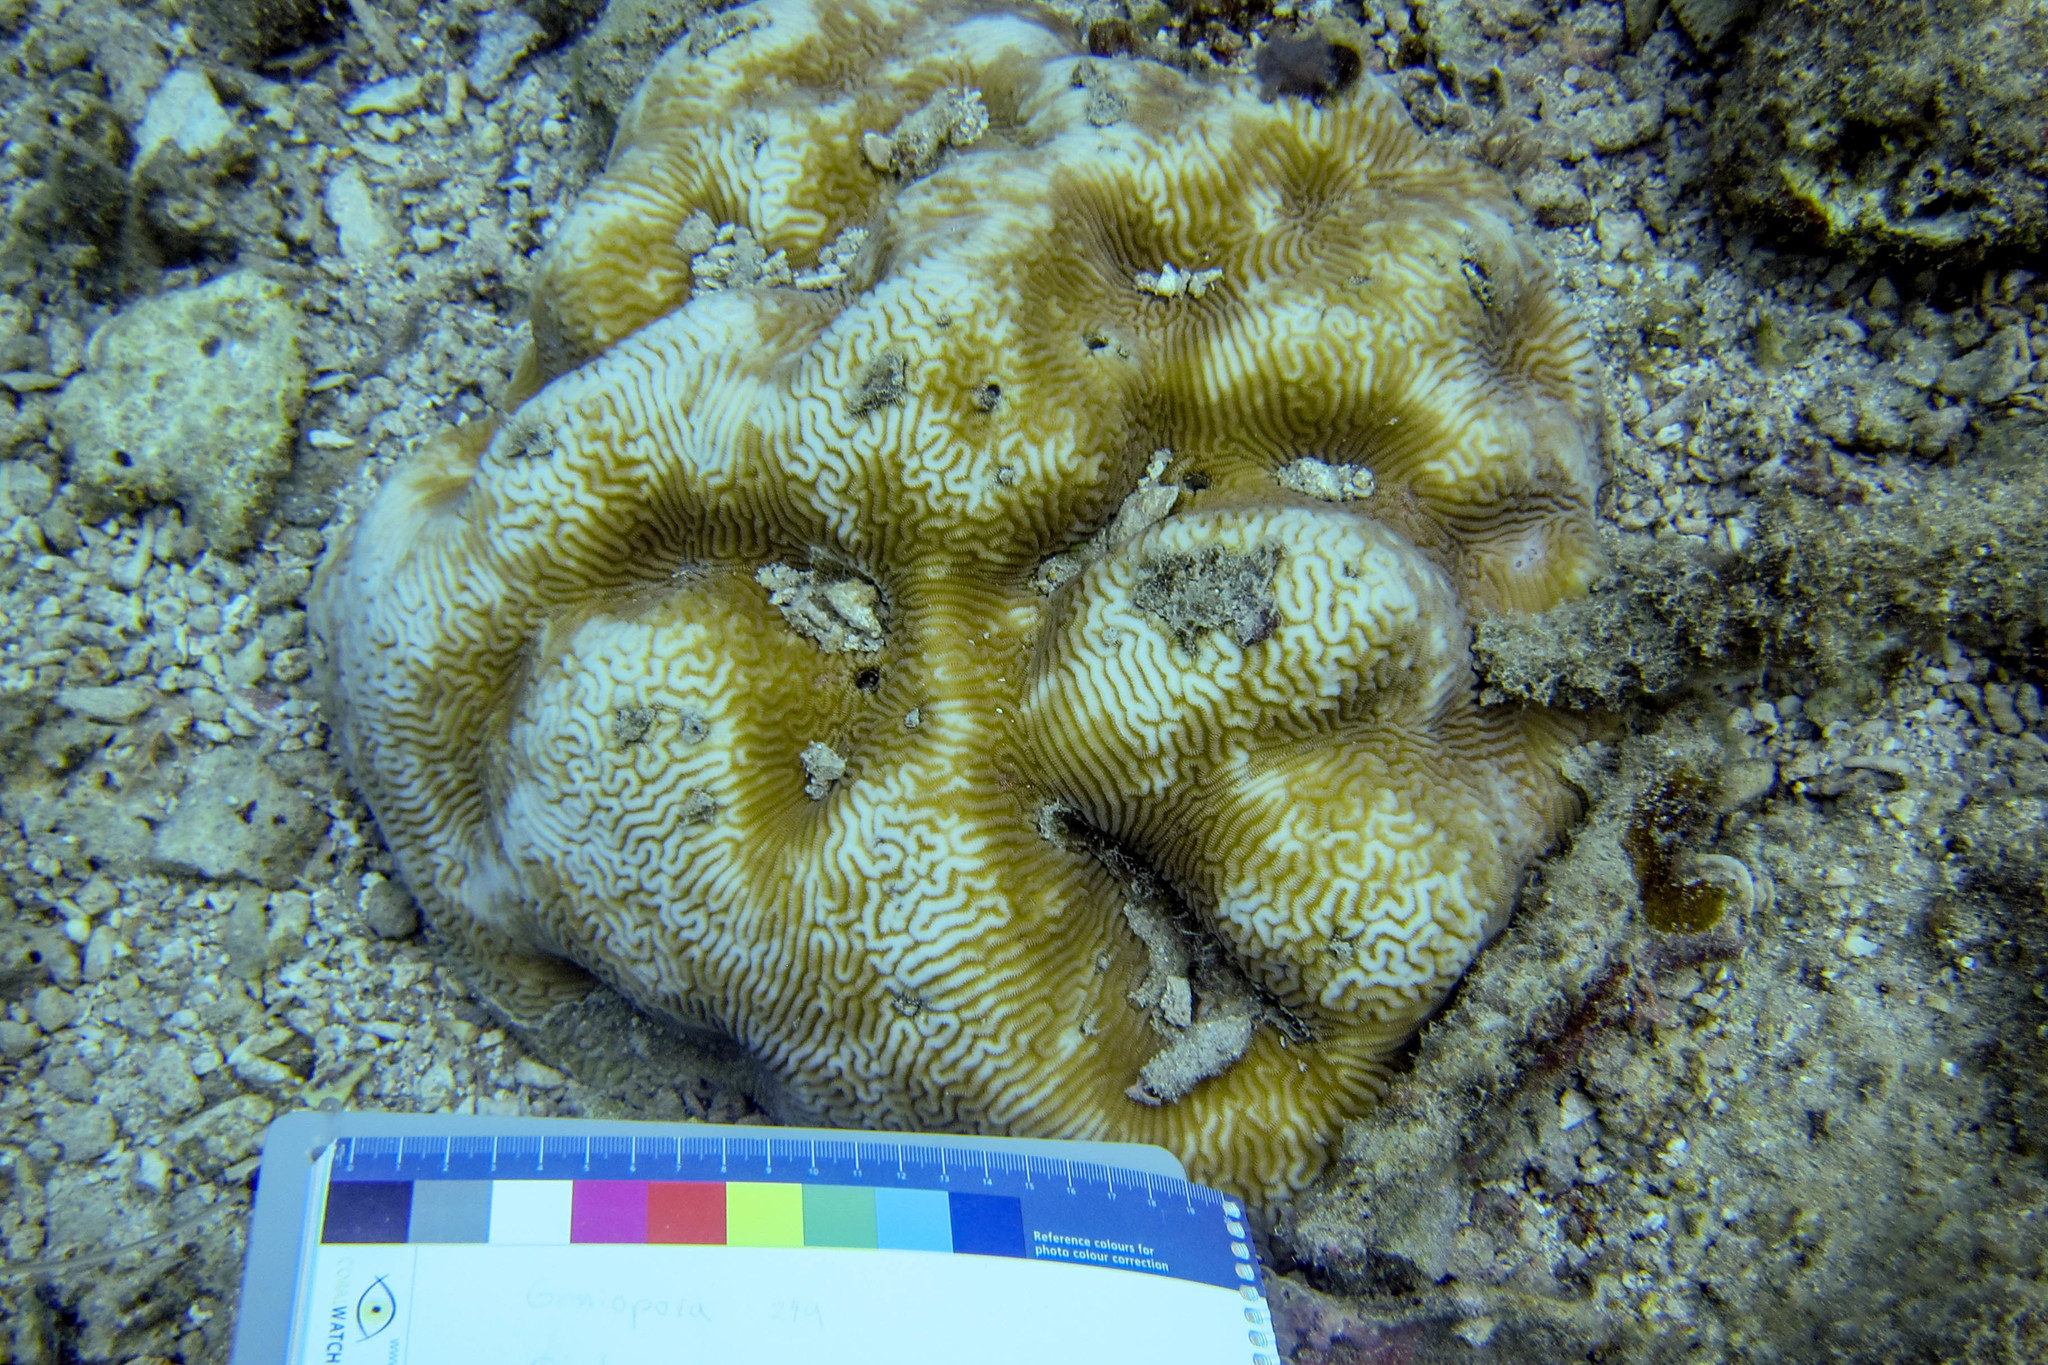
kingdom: Animalia
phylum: Cnidaria
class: Anthozoa
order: Scleractinia
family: Merulinidae
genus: Leptoria
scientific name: Leptoria phrygia
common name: Least valley coral
